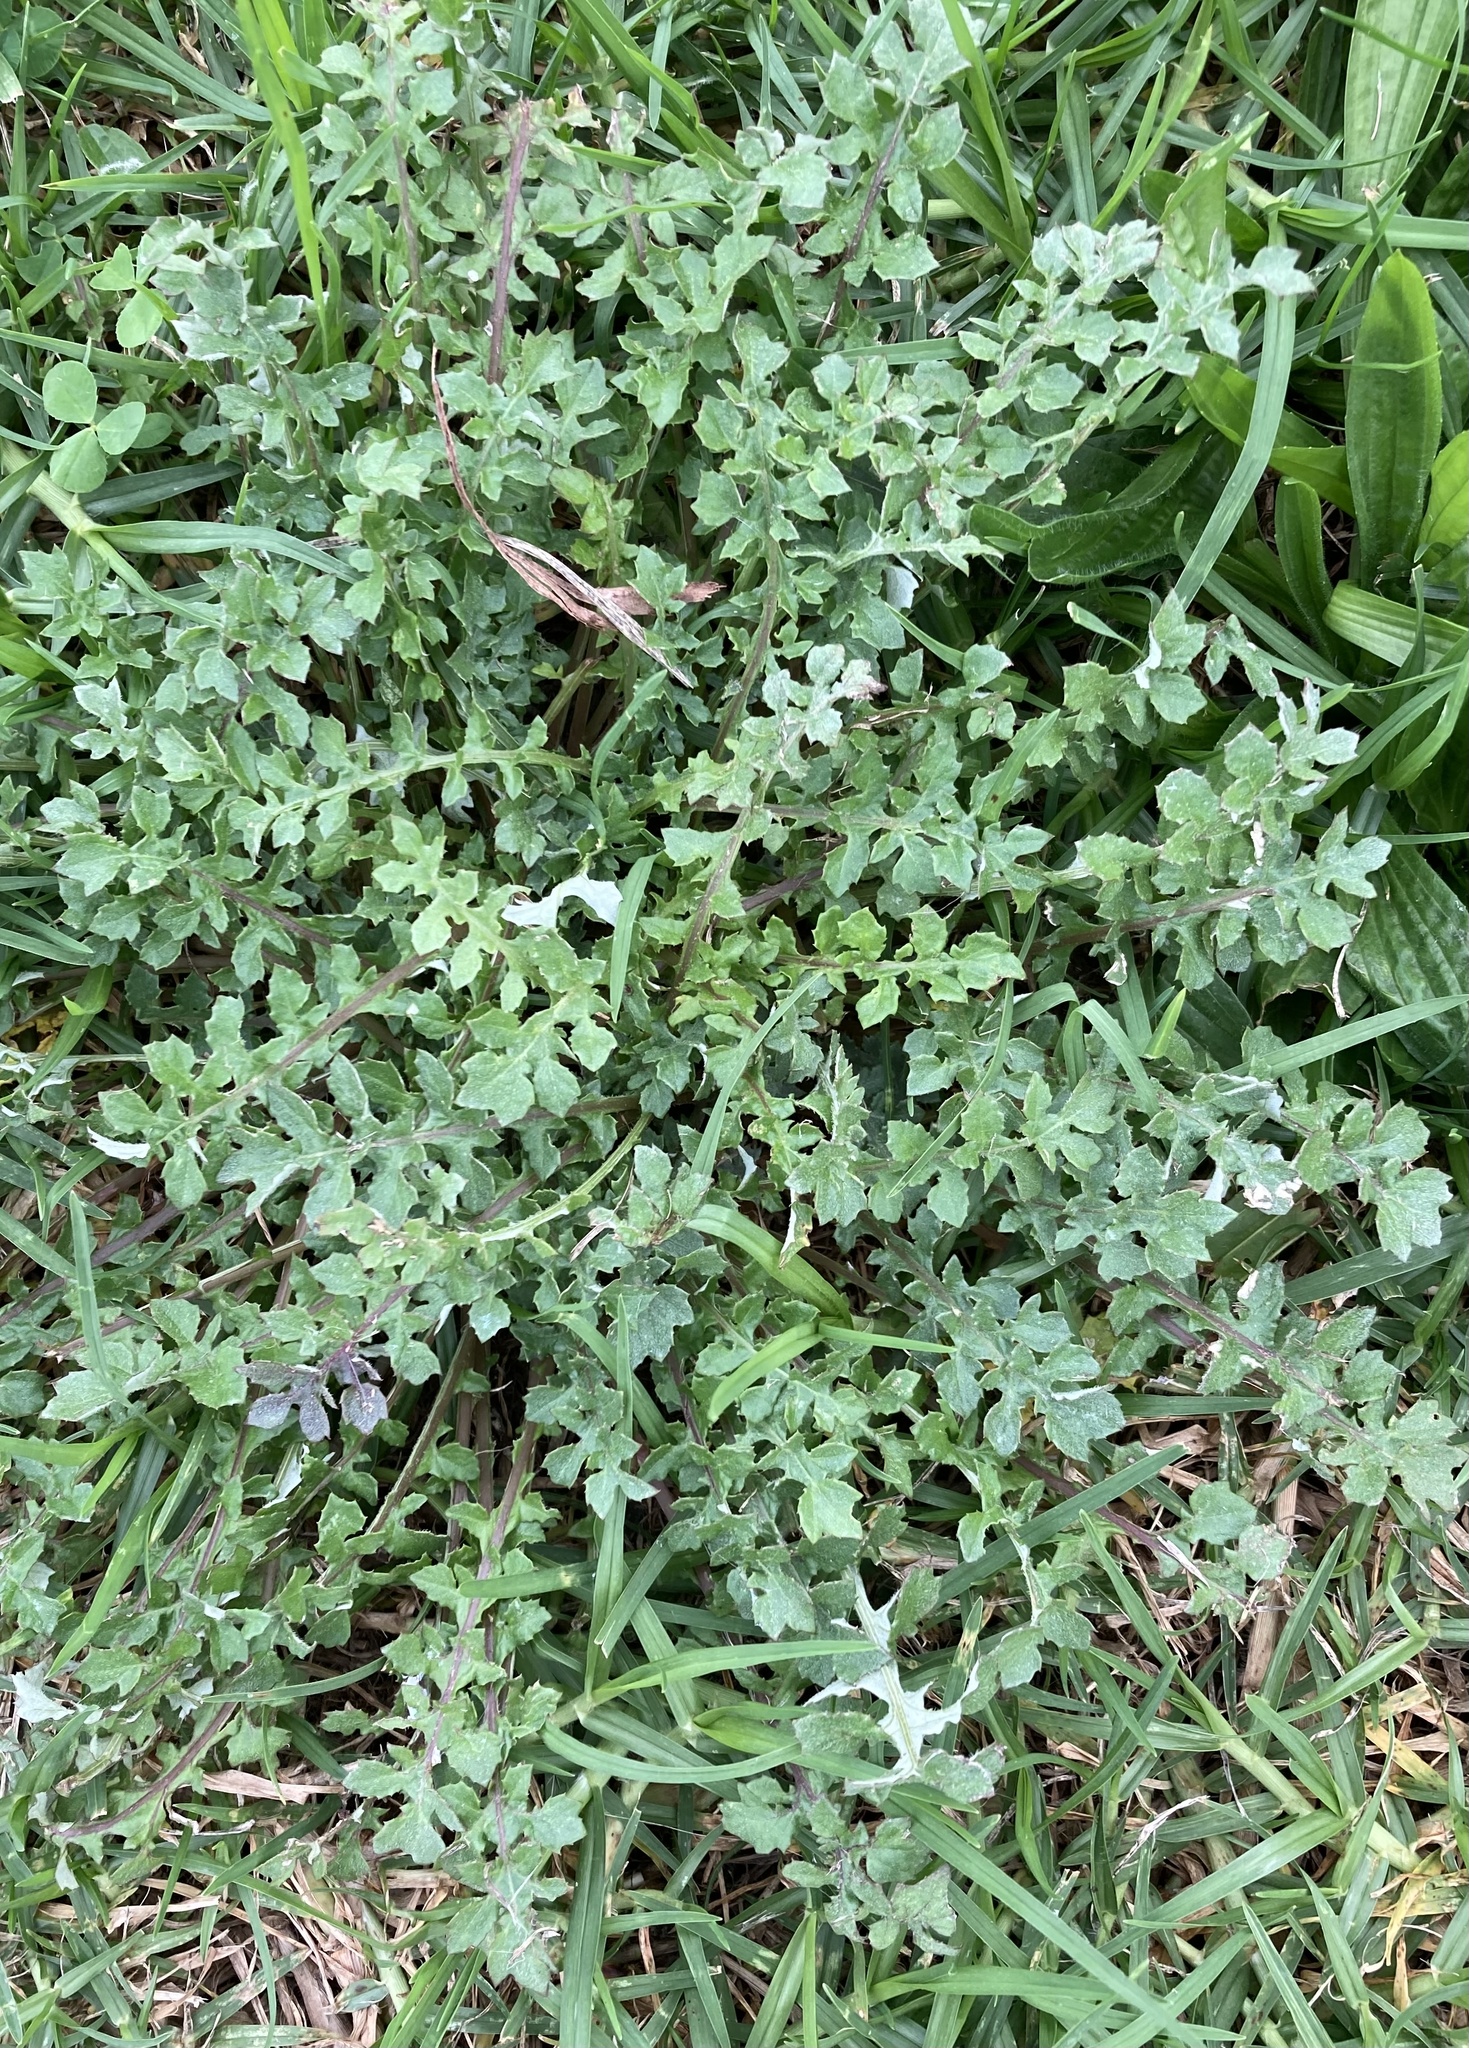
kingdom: Plantae
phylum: Tracheophyta
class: Magnoliopsida
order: Asterales
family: Asteraceae
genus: Arctotheca
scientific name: Arctotheca calendula
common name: Capeweed
